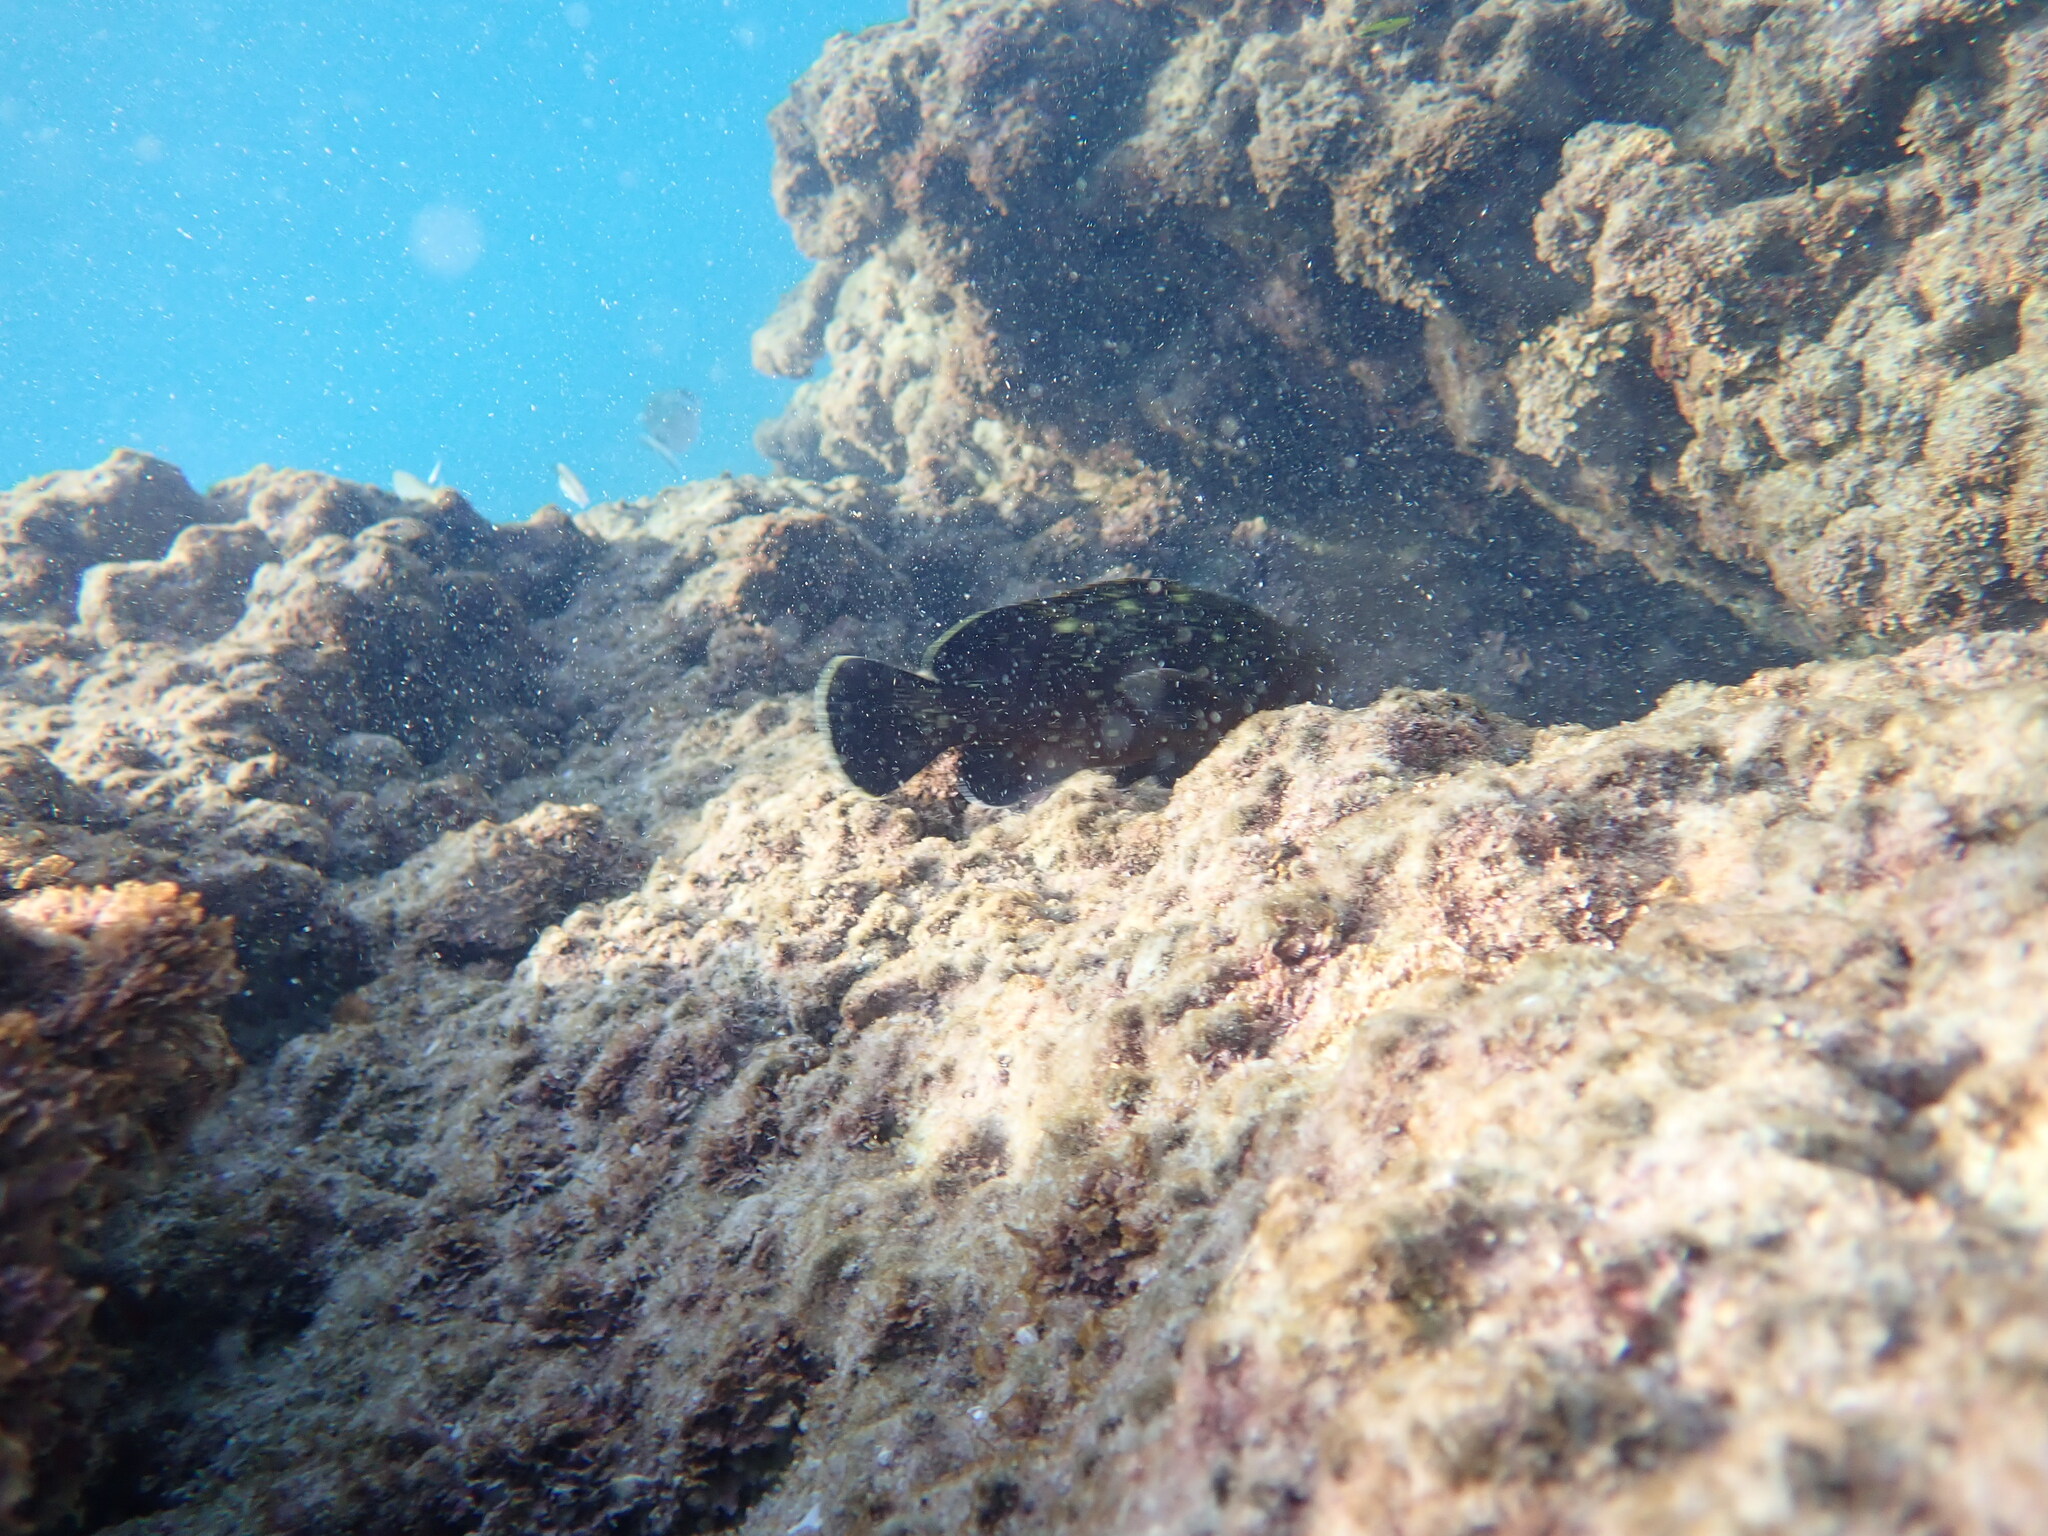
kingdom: Animalia
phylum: Chordata
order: Perciformes
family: Serranidae
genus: Epinephelus
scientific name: Epinephelus marginatus
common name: Dusky grouper
